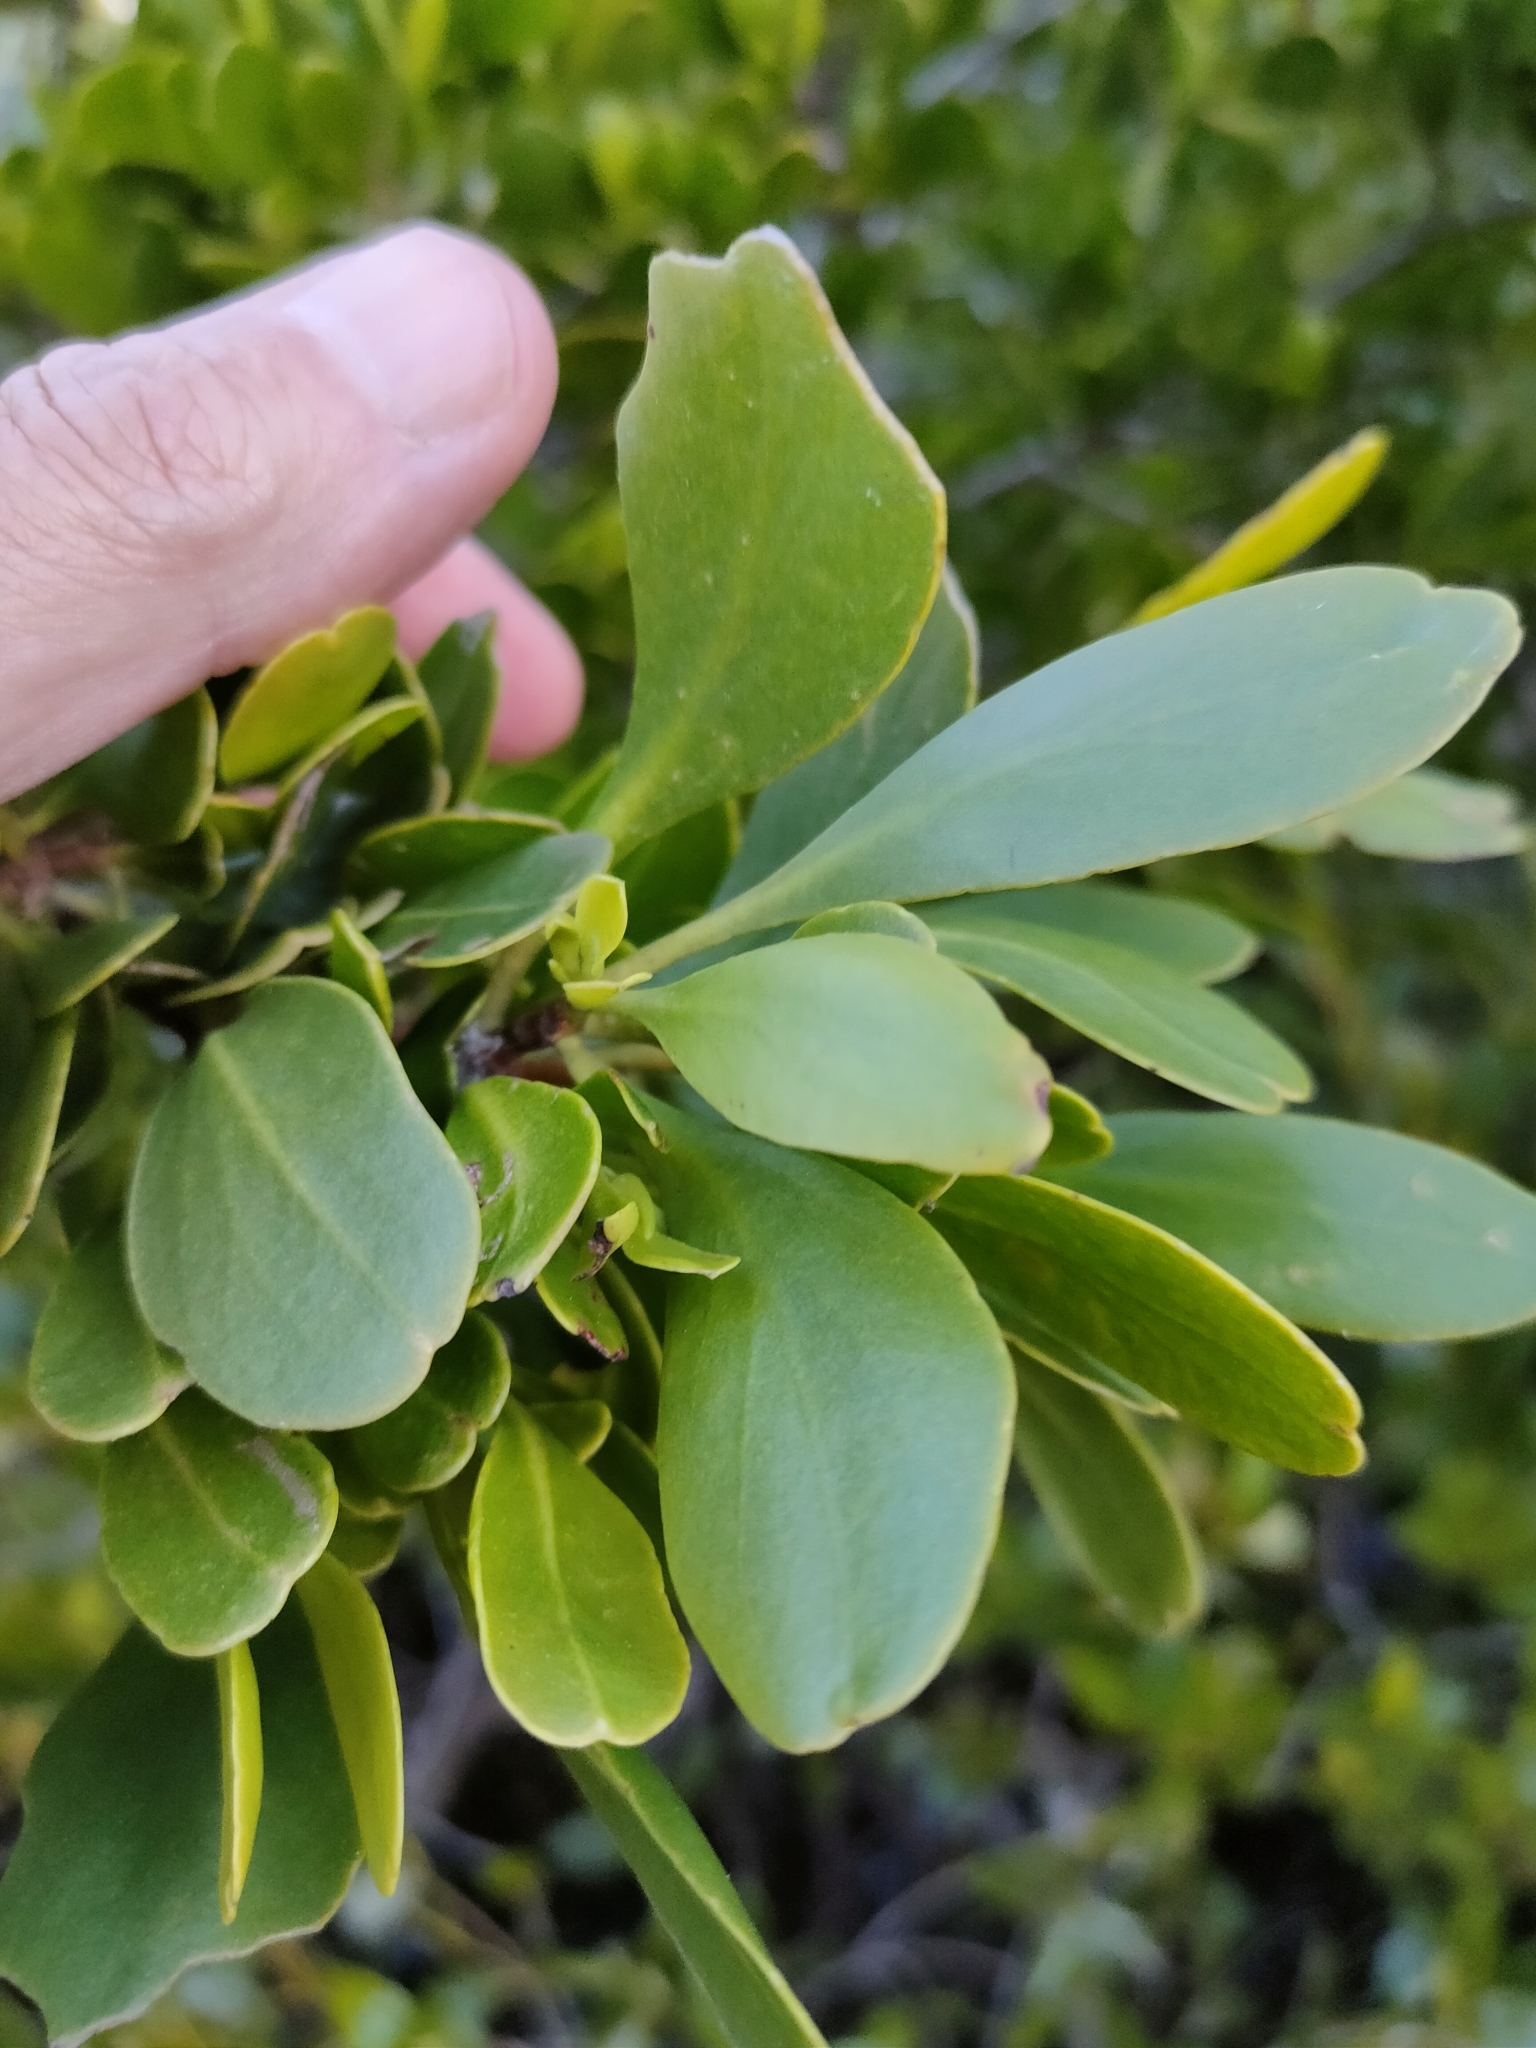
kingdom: Plantae
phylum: Tracheophyta
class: Magnoliopsida
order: Myrtales
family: Combretaceae
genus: Lumnitzera
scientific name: Lumnitzera racemosa
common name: White-flowered black mangrove
